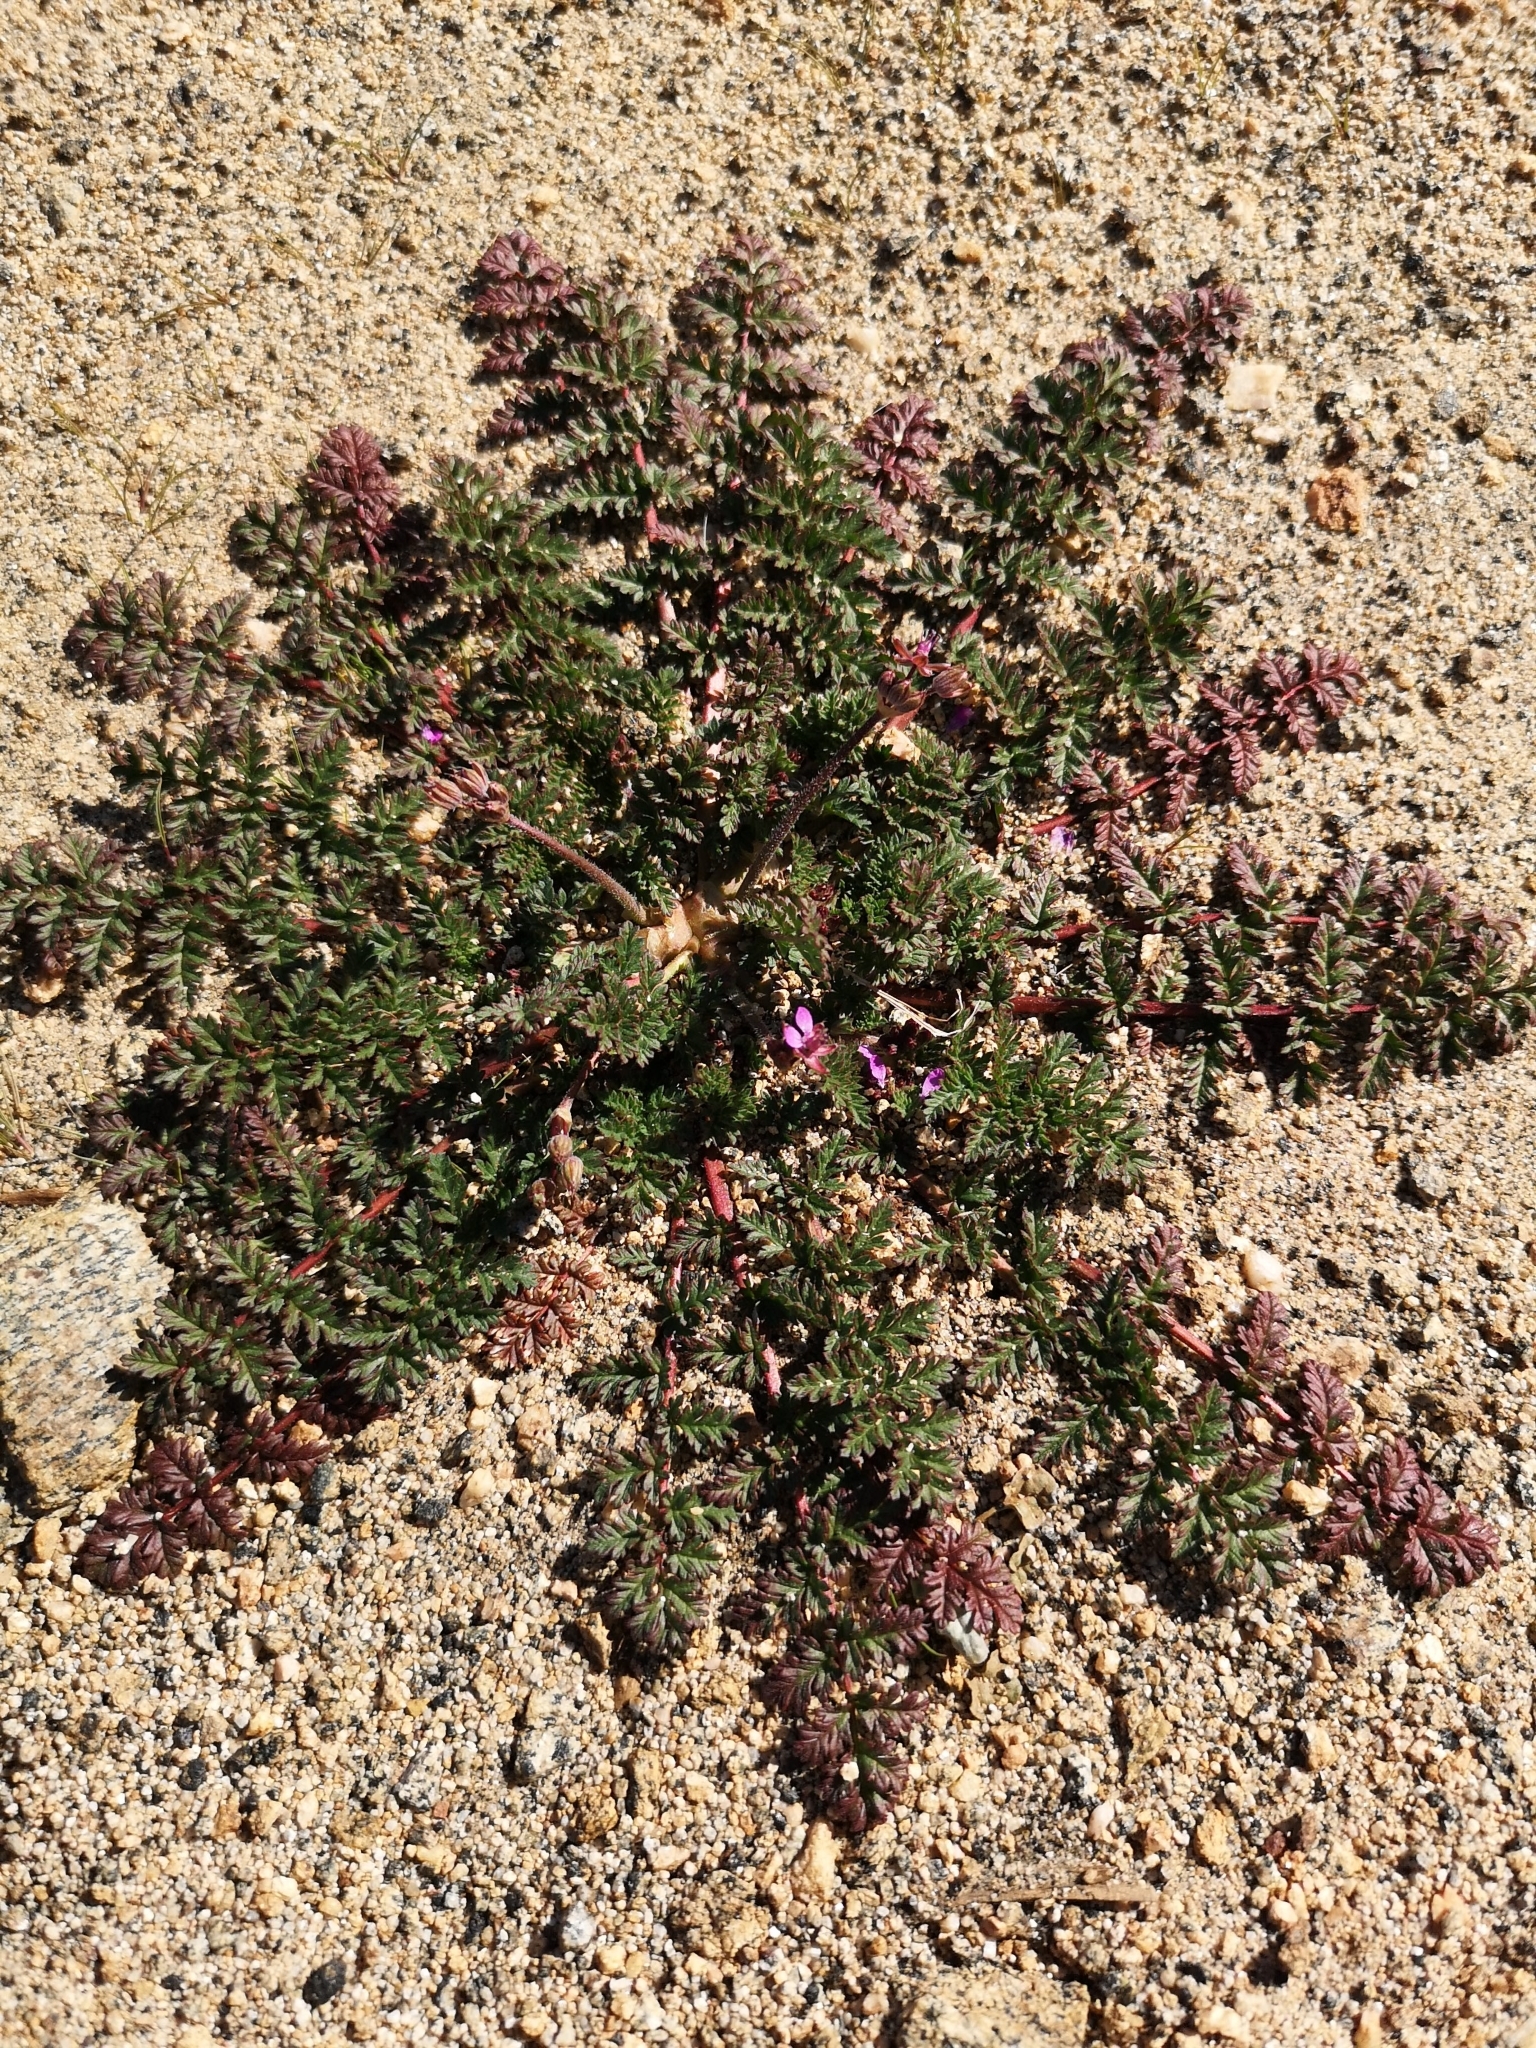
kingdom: Plantae
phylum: Tracheophyta
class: Magnoliopsida
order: Geraniales
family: Geraniaceae
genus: Erodium
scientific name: Erodium cicutarium
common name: Common stork's-bill
